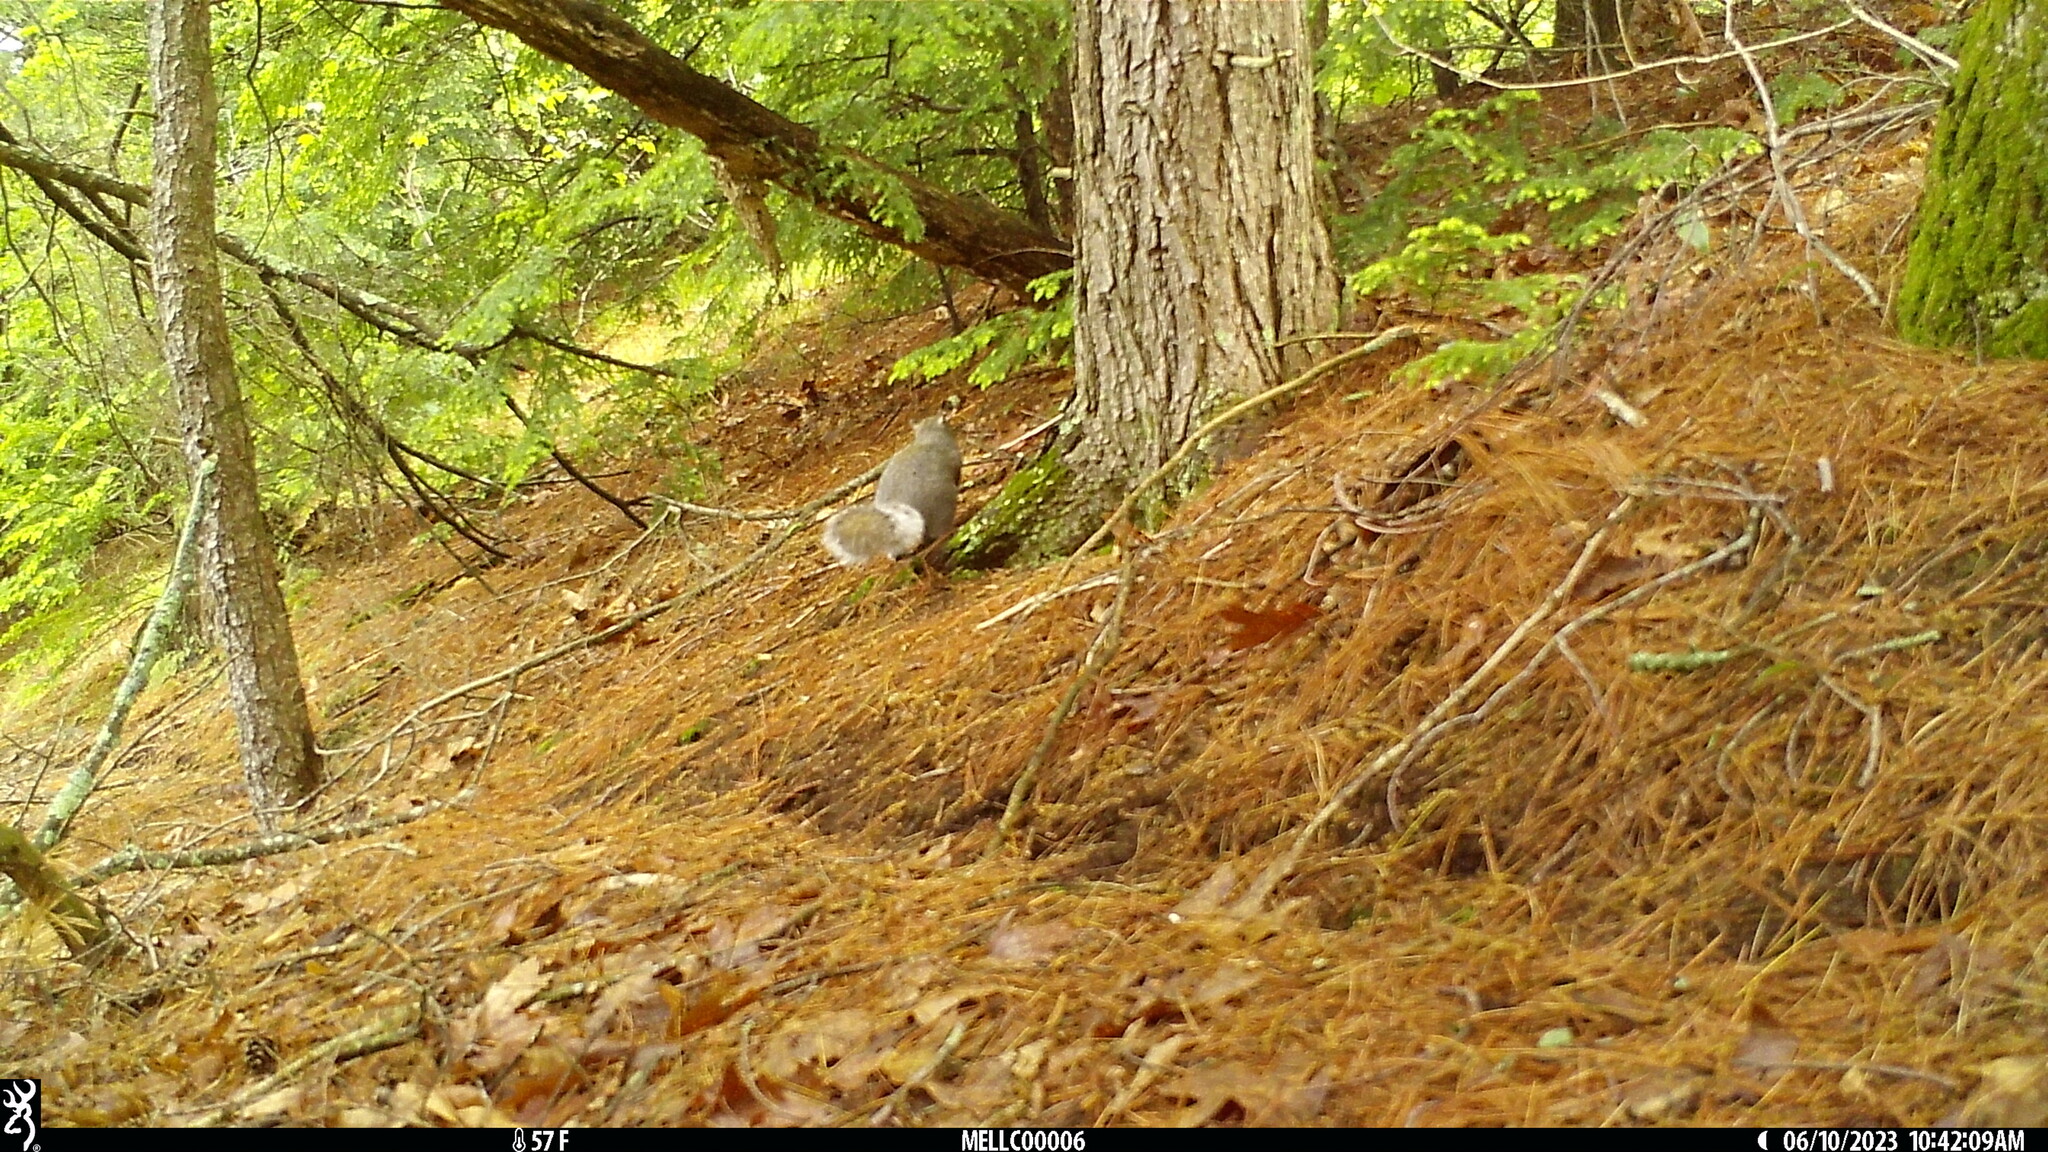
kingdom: Animalia
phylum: Chordata
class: Mammalia
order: Rodentia
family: Sciuridae
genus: Sciurus
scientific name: Sciurus carolinensis
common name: Eastern gray squirrel
